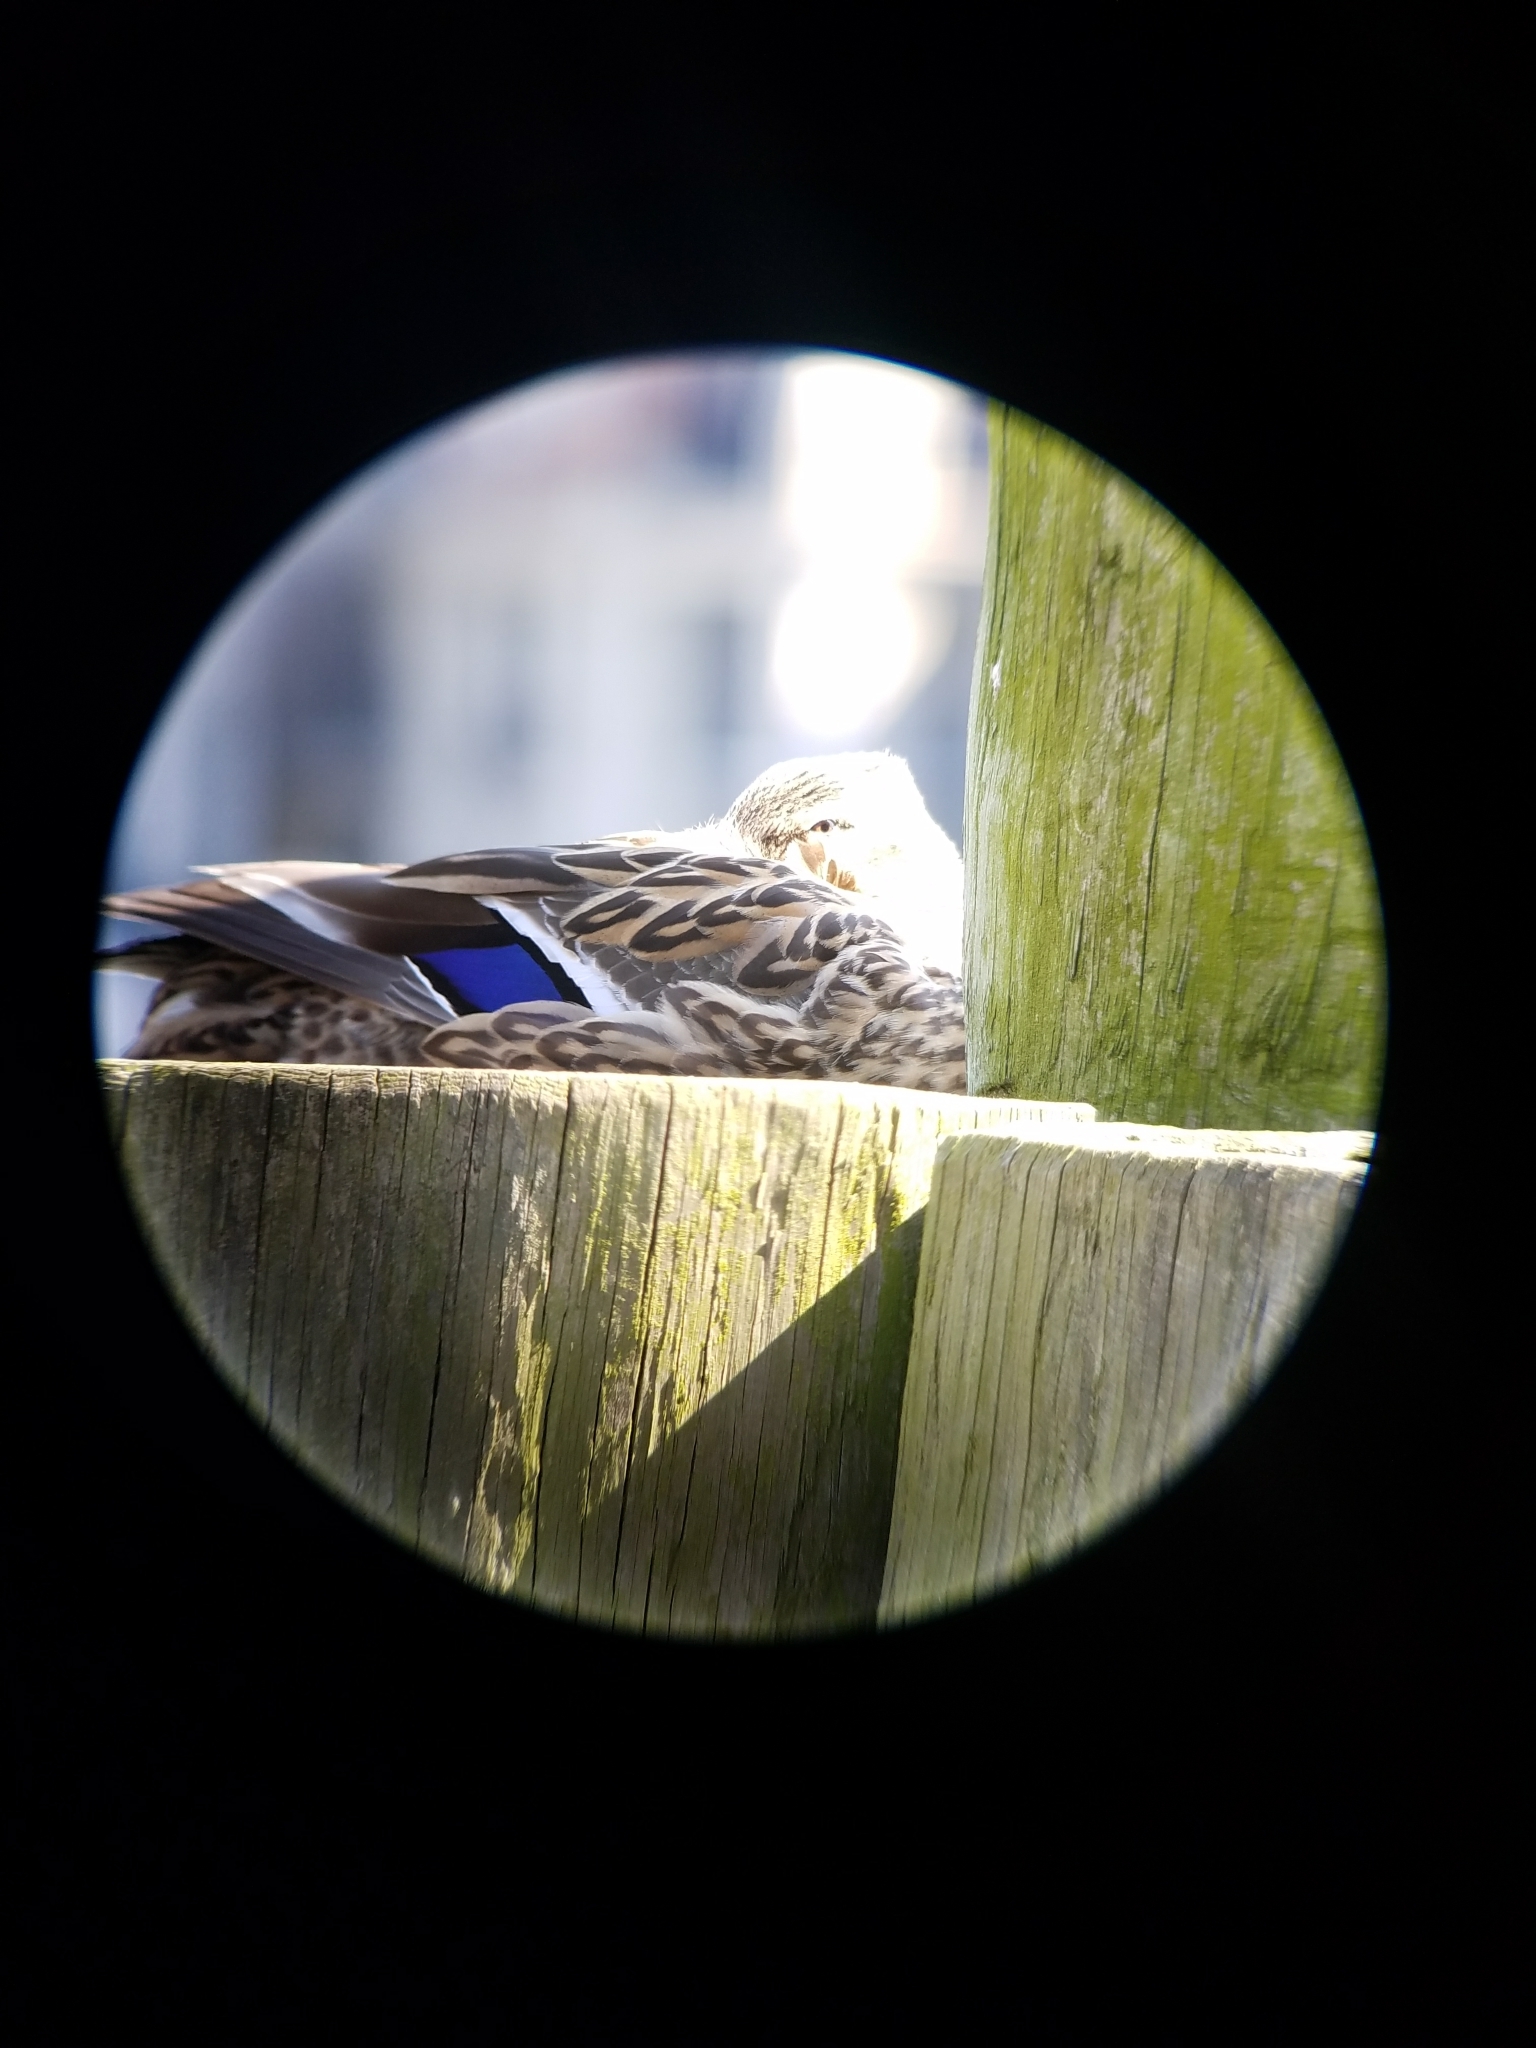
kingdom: Animalia
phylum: Chordata
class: Aves
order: Anseriformes
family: Anatidae
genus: Anas
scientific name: Anas platyrhynchos
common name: Mallard
